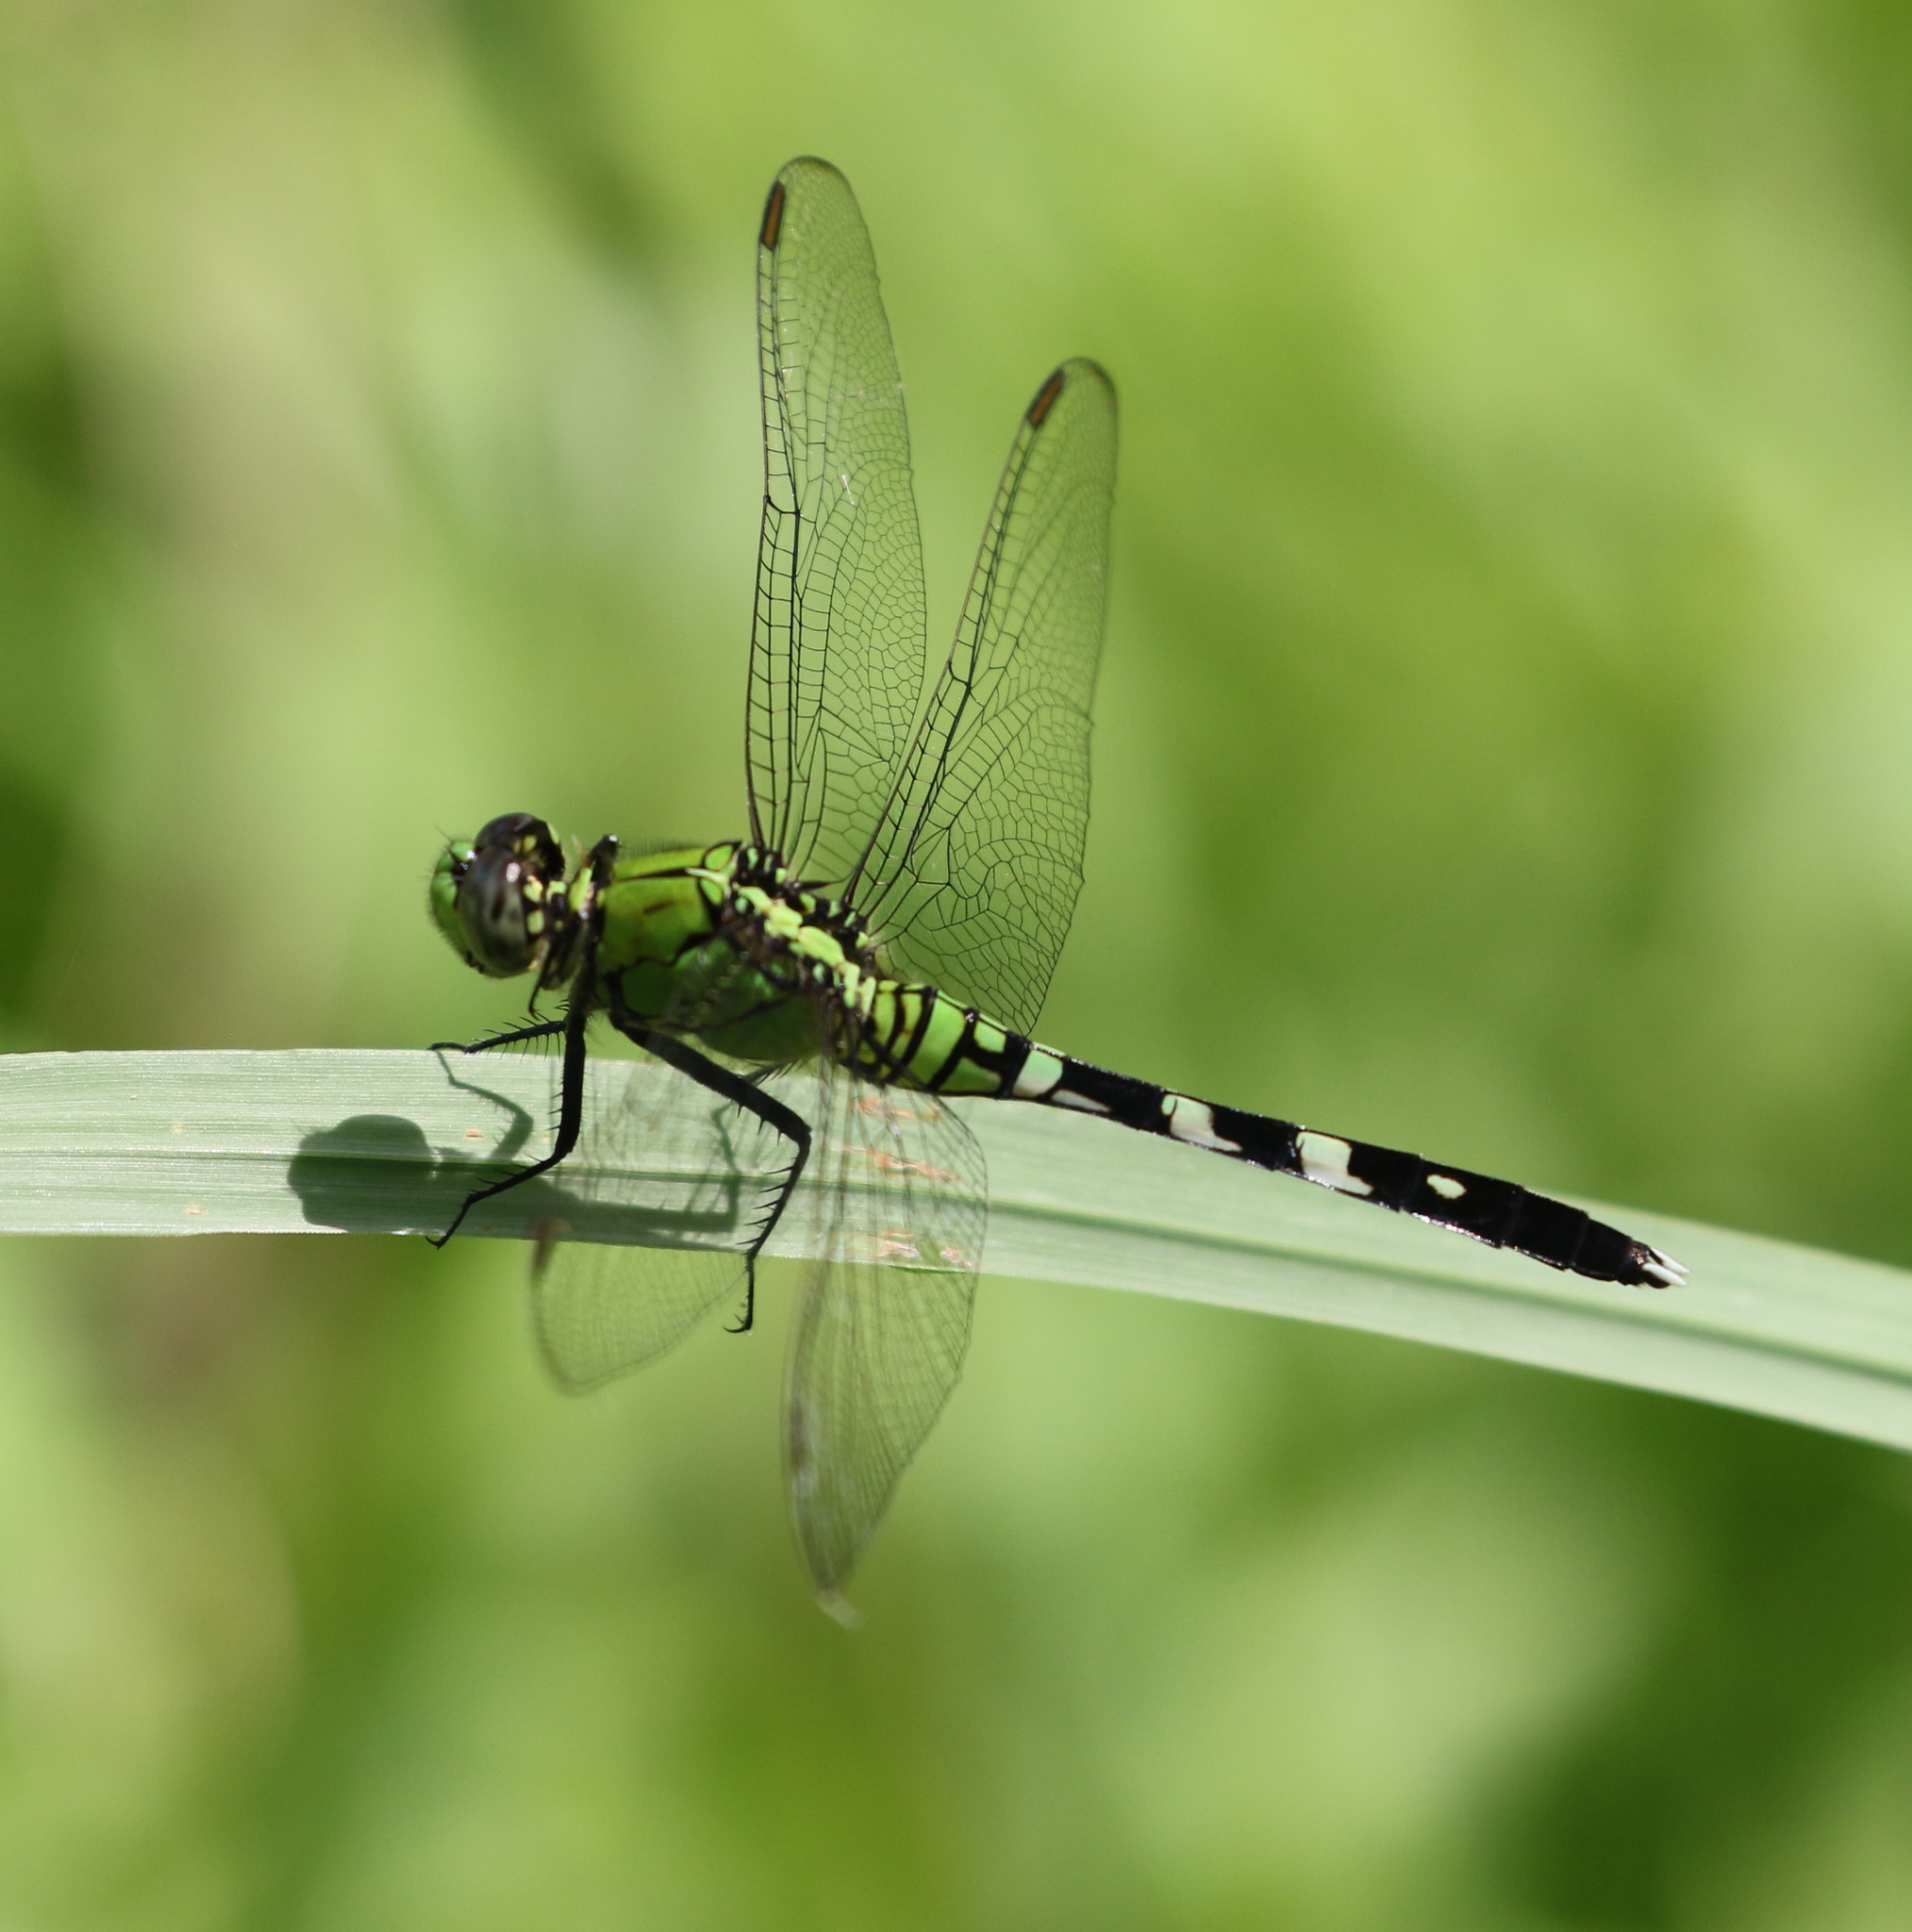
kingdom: Animalia
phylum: Arthropoda
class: Insecta
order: Odonata
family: Libellulidae
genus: Erythemis
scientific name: Erythemis simplicicollis
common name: Eastern pondhawk
